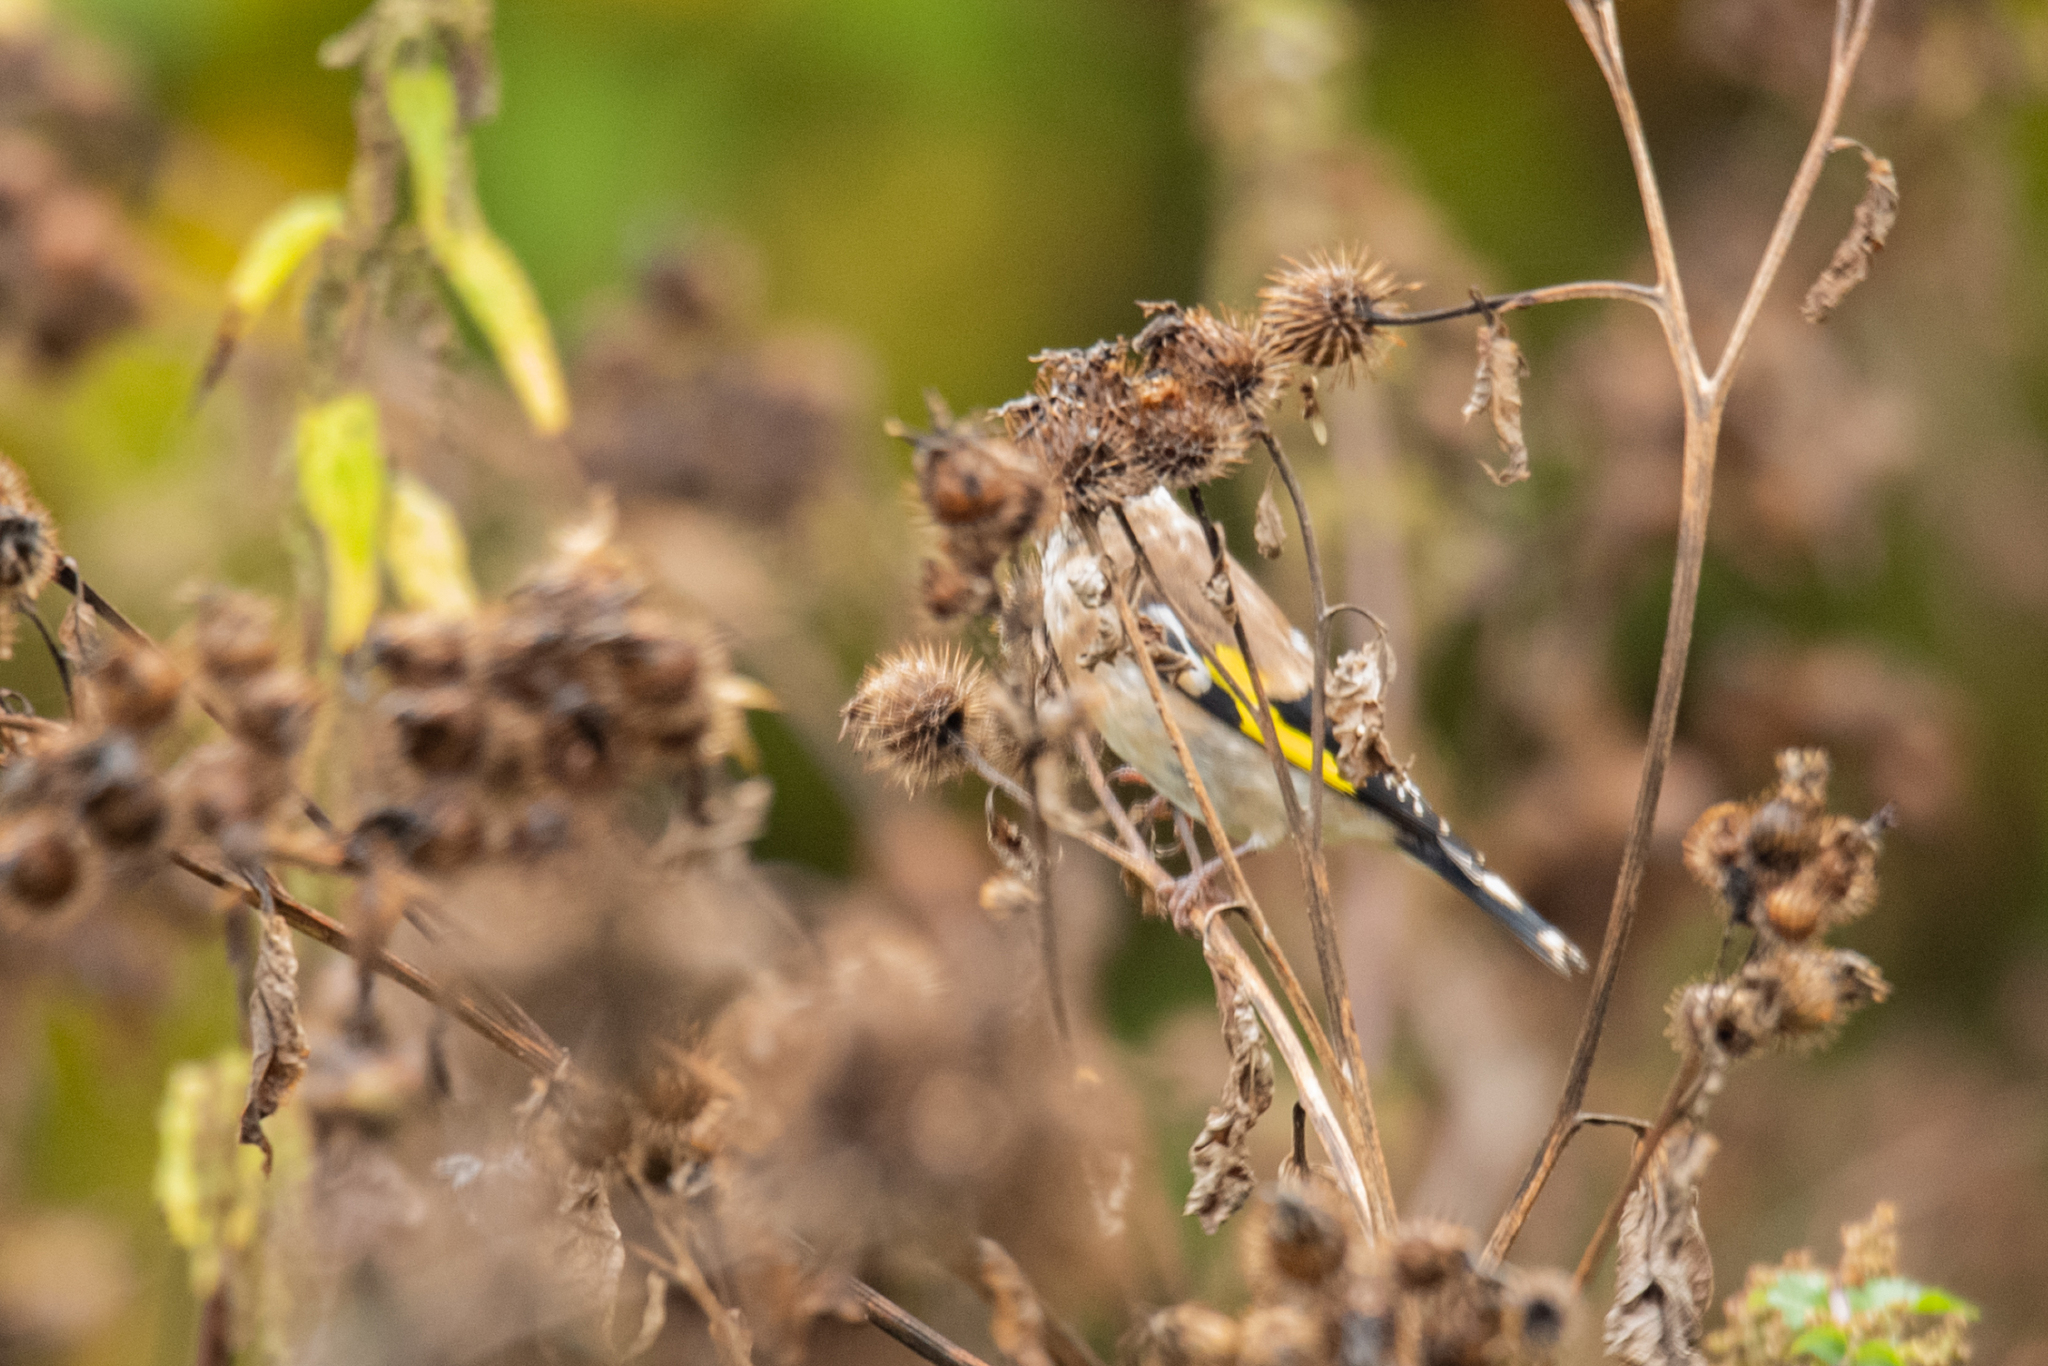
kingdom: Animalia
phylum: Chordata
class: Aves
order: Passeriformes
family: Fringillidae
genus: Carduelis
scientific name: Carduelis carduelis
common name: European goldfinch
